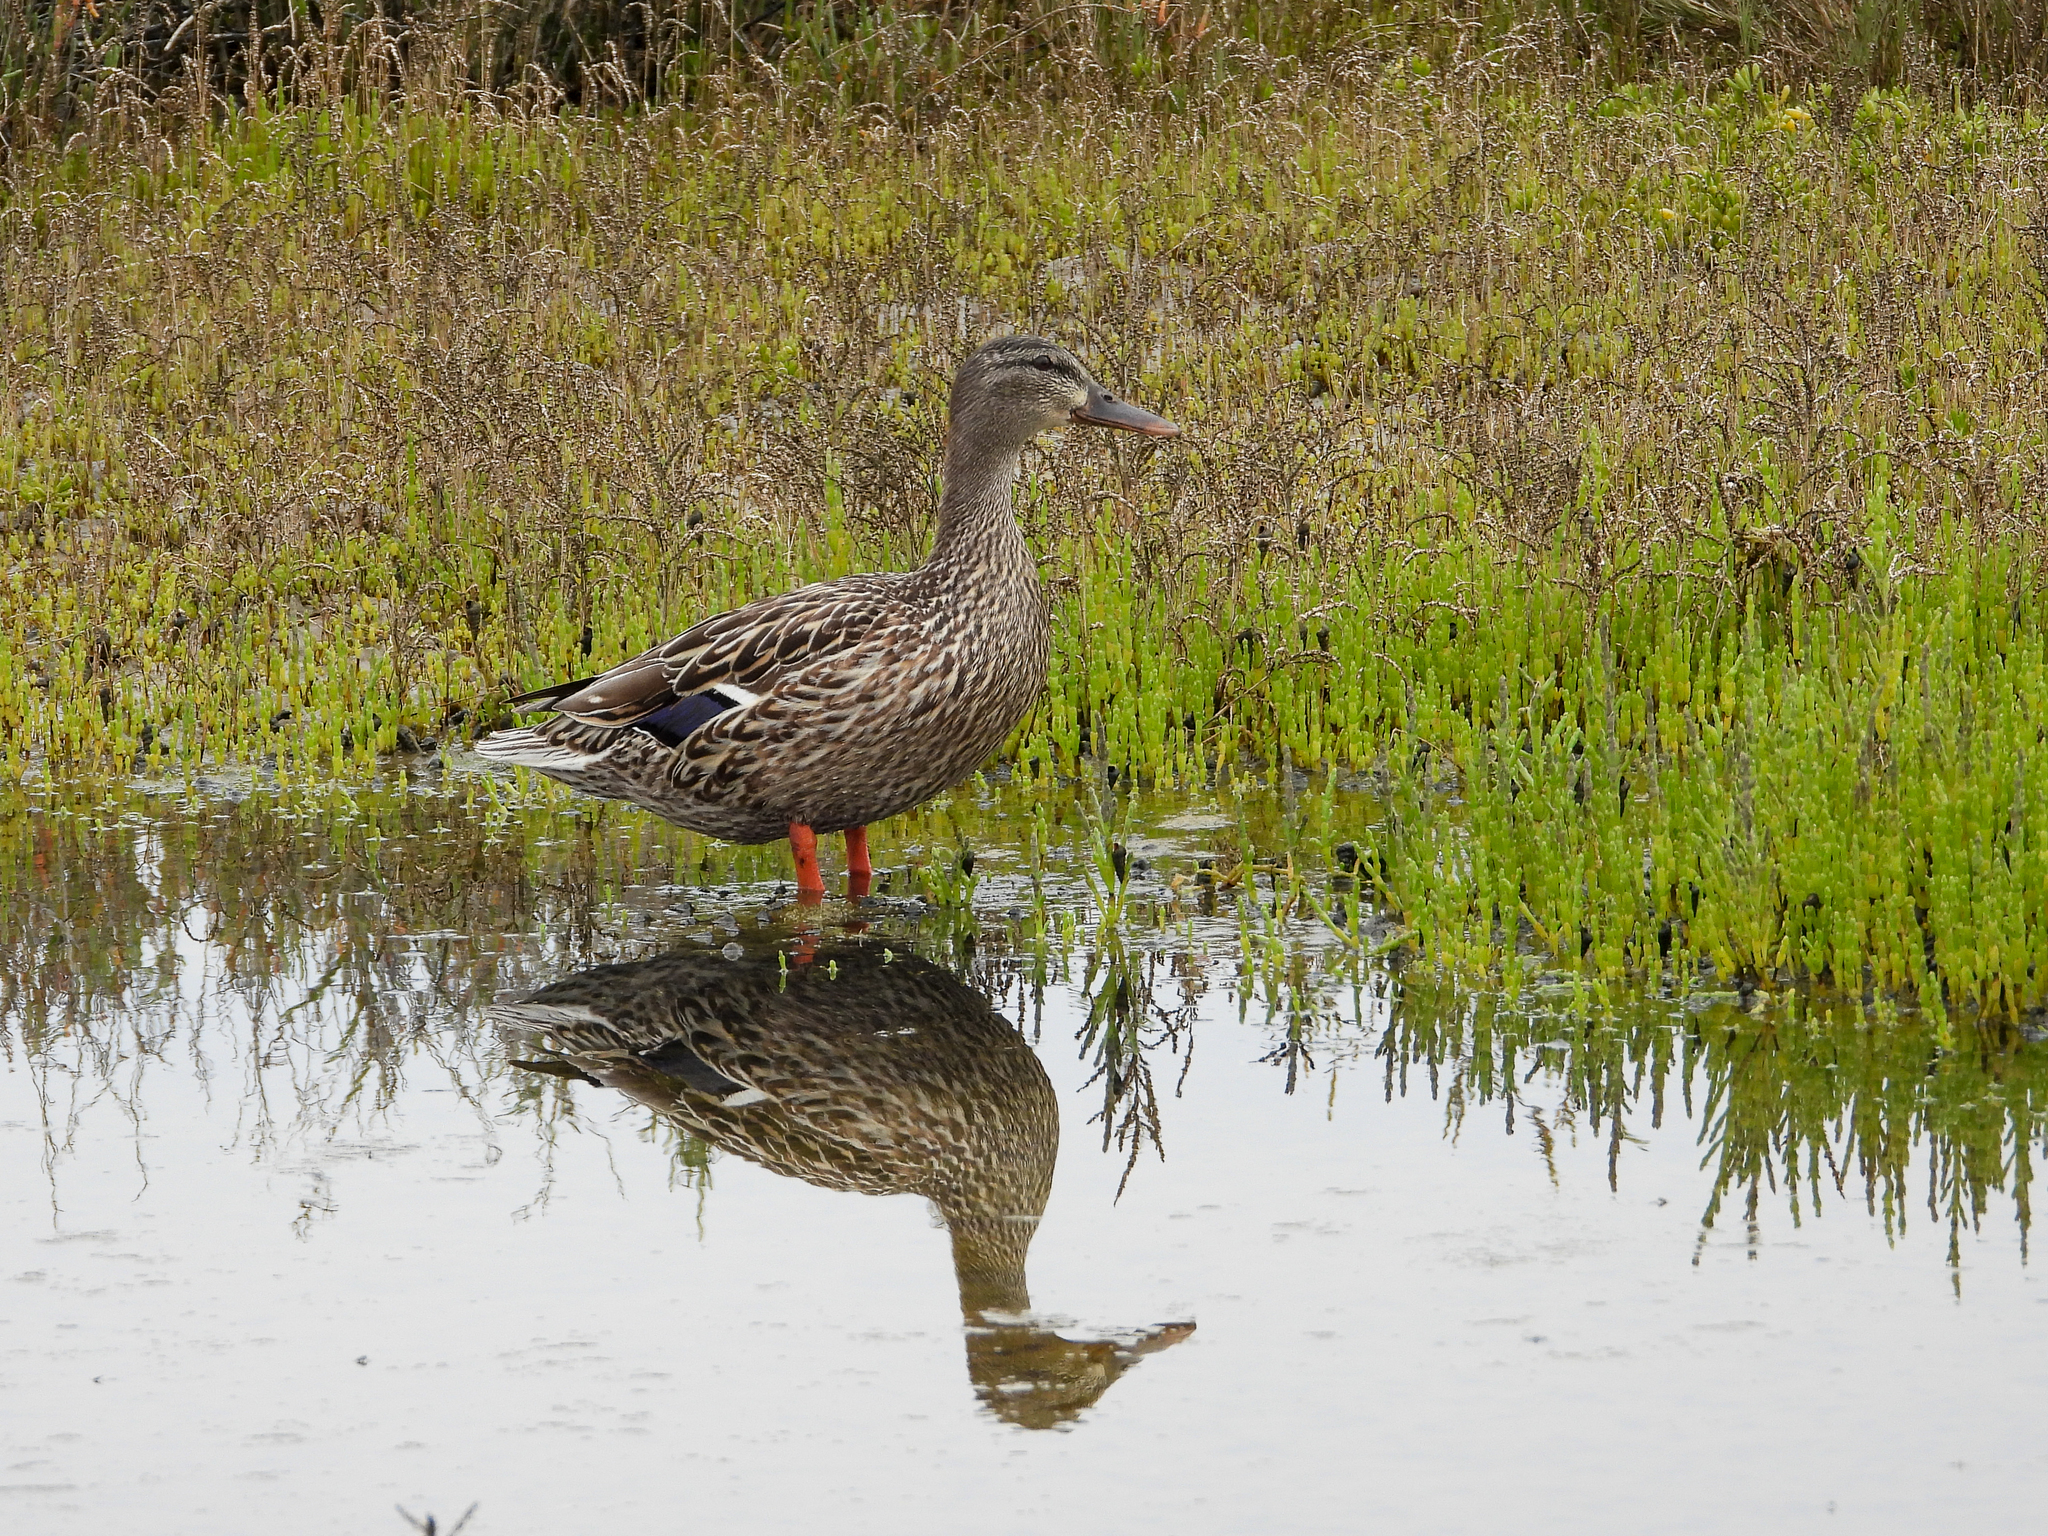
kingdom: Animalia
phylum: Chordata
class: Aves
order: Anseriformes
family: Anatidae
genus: Anas
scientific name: Anas platyrhynchos
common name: Mallard
